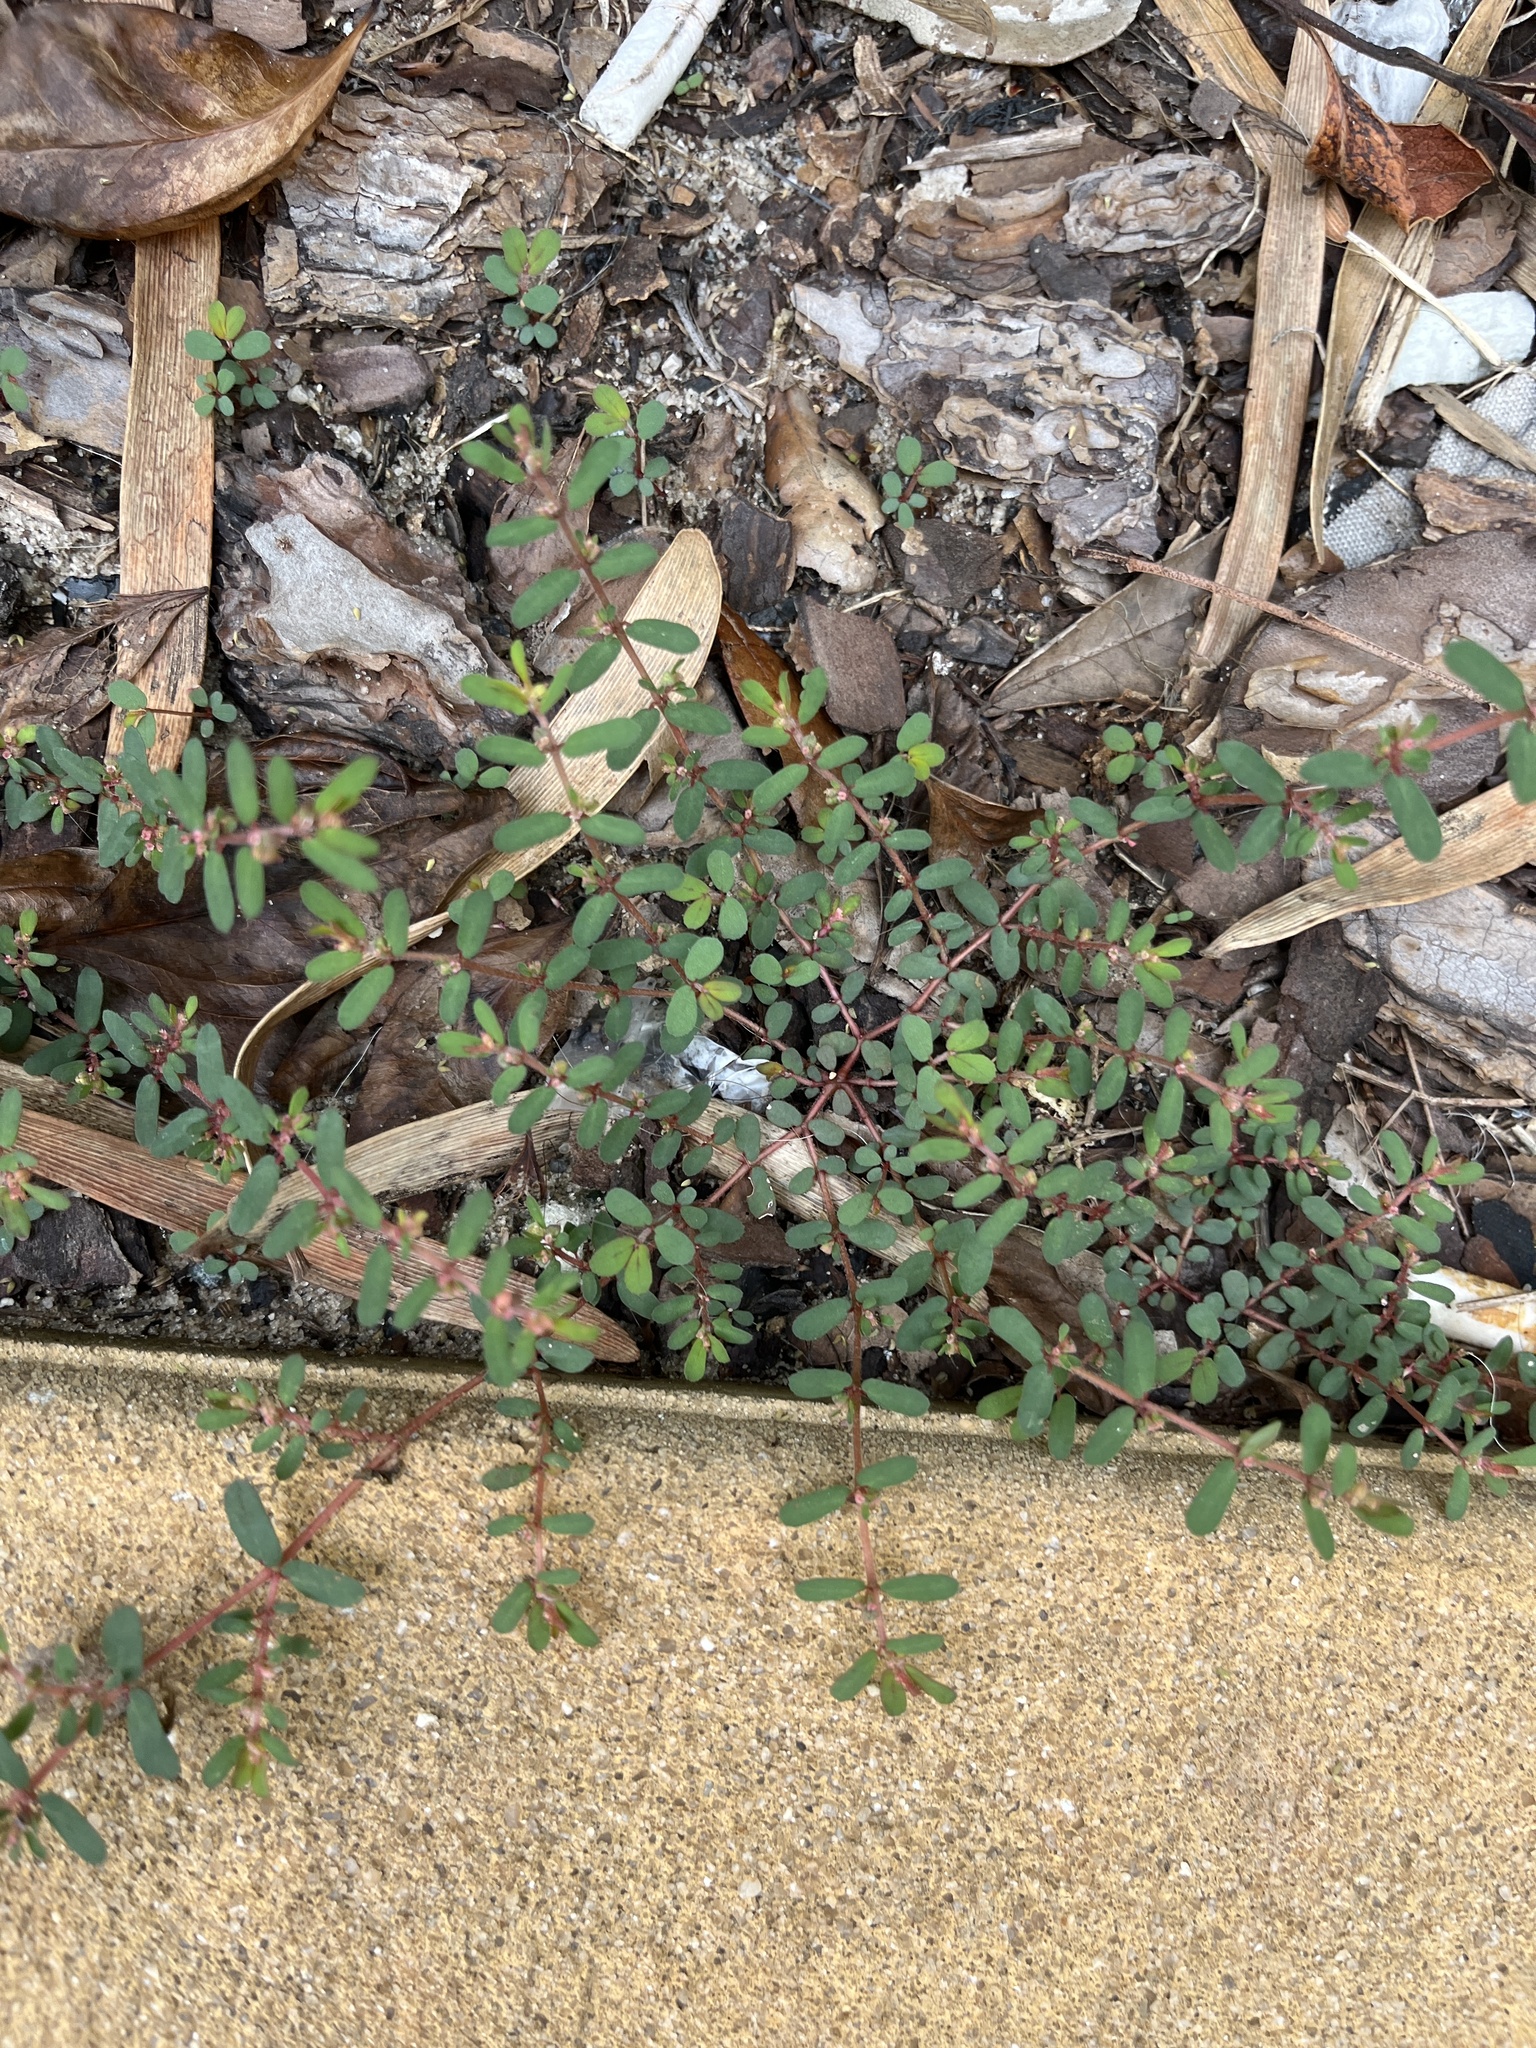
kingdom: Plantae
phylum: Tracheophyta
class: Magnoliopsida
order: Malpighiales
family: Euphorbiaceae
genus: Euphorbia
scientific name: Euphorbia maculata
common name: Spotted spurge
